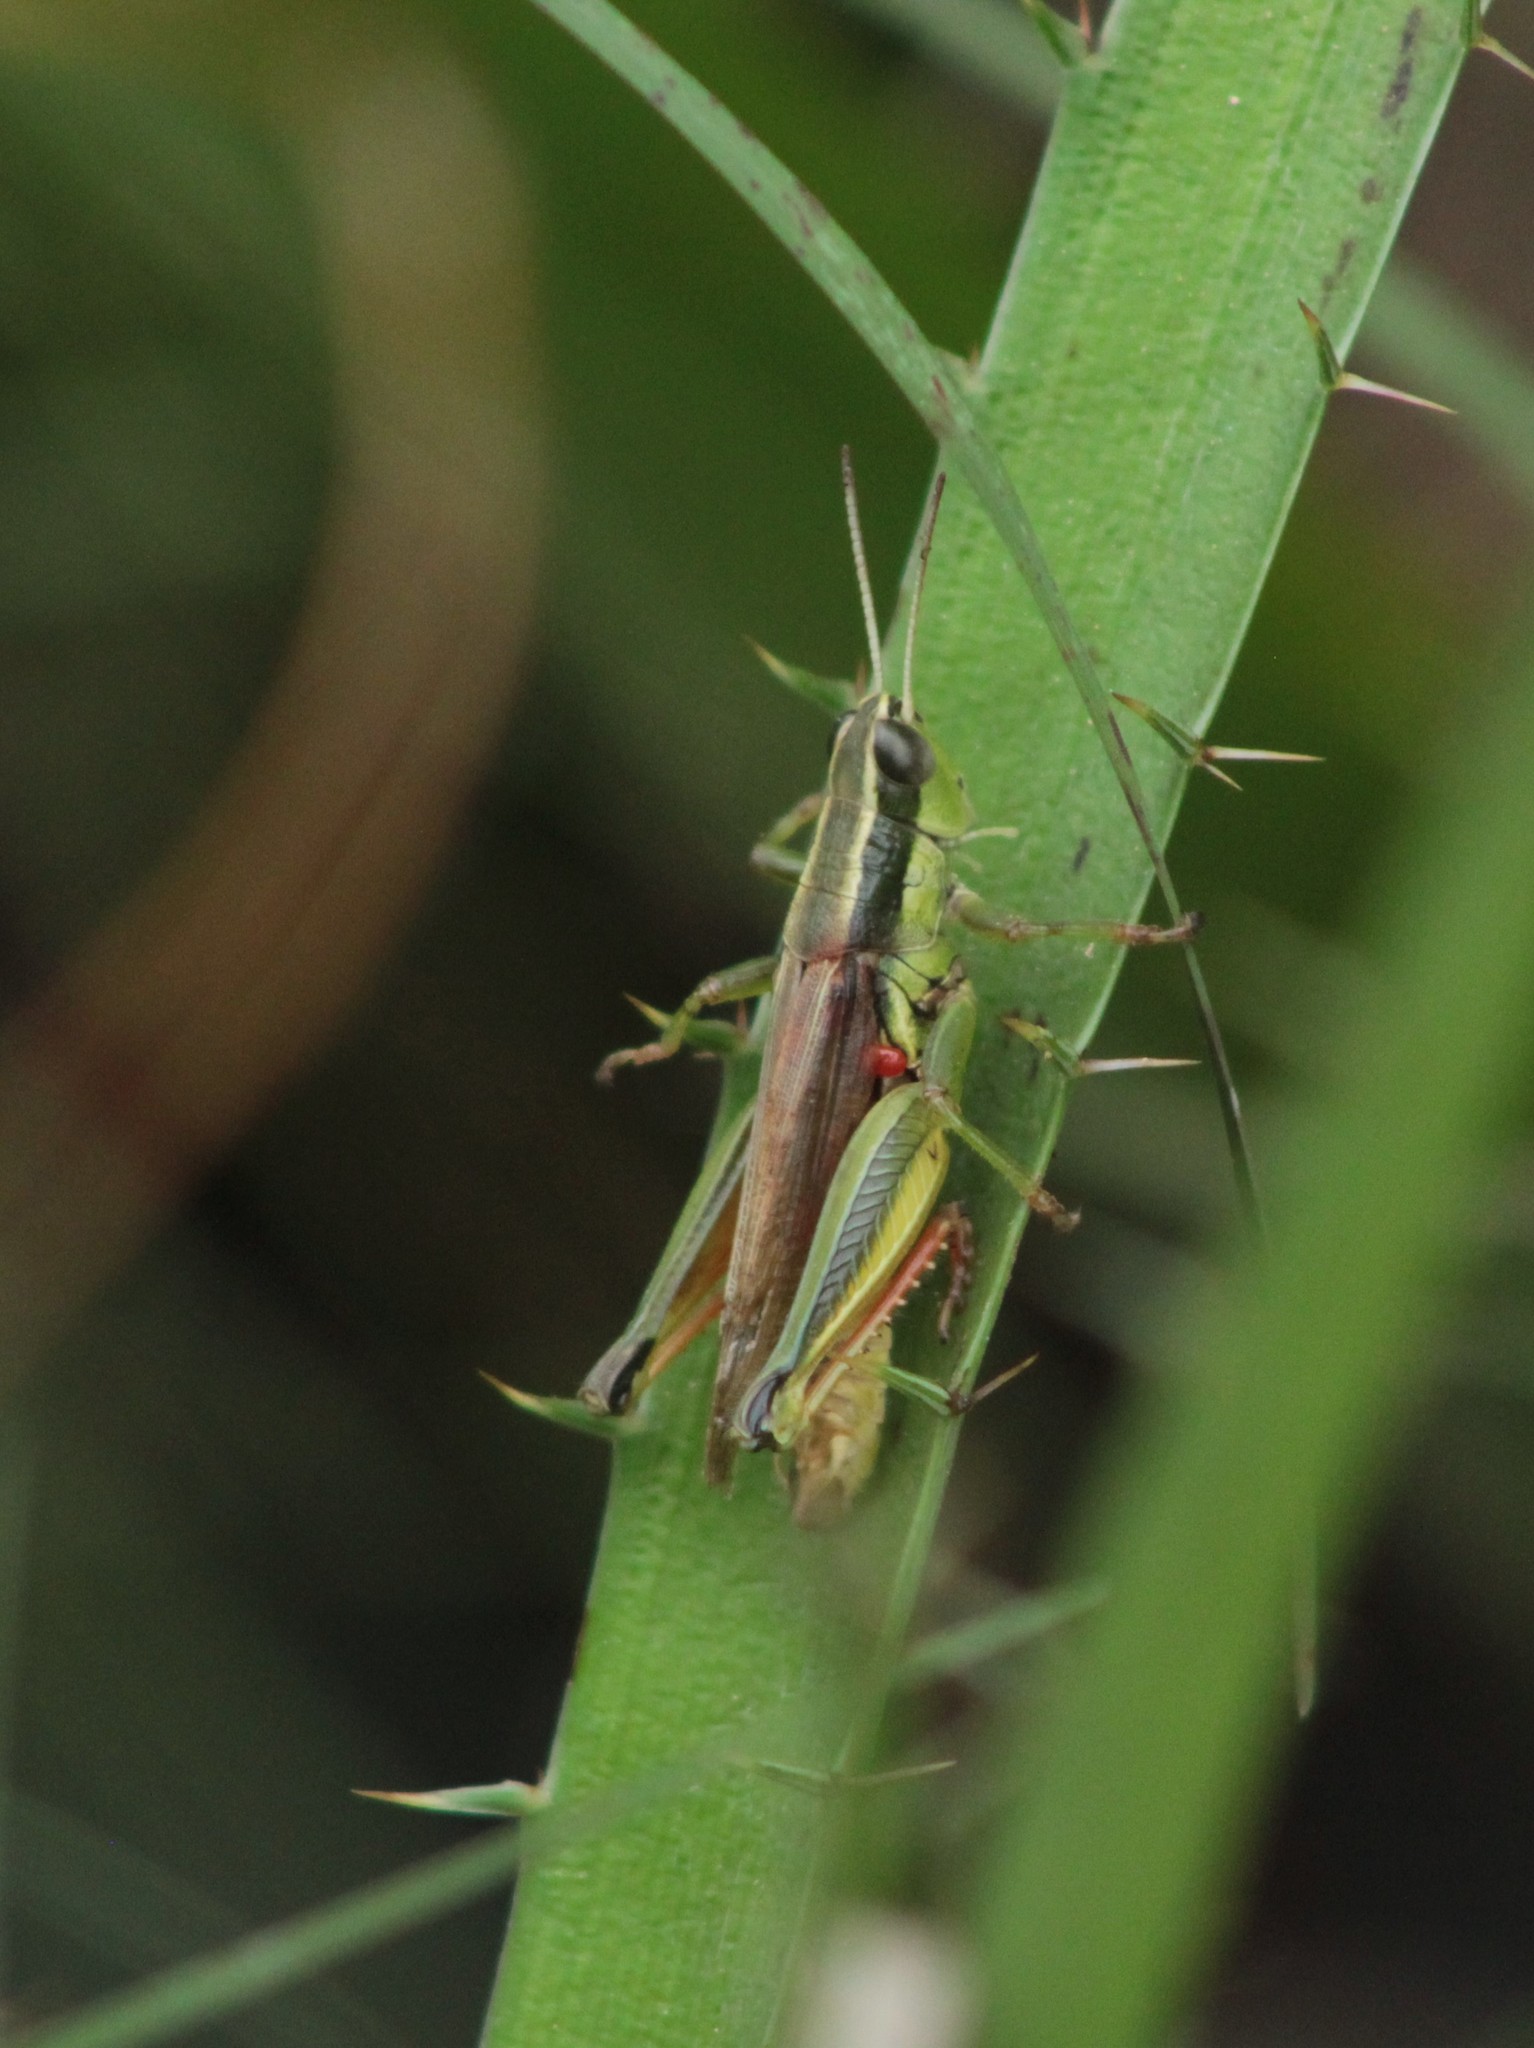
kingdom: Animalia
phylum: Arthropoda
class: Insecta
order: Orthoptera
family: Acrididae
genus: Scotussa
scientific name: Scotussa cliens
